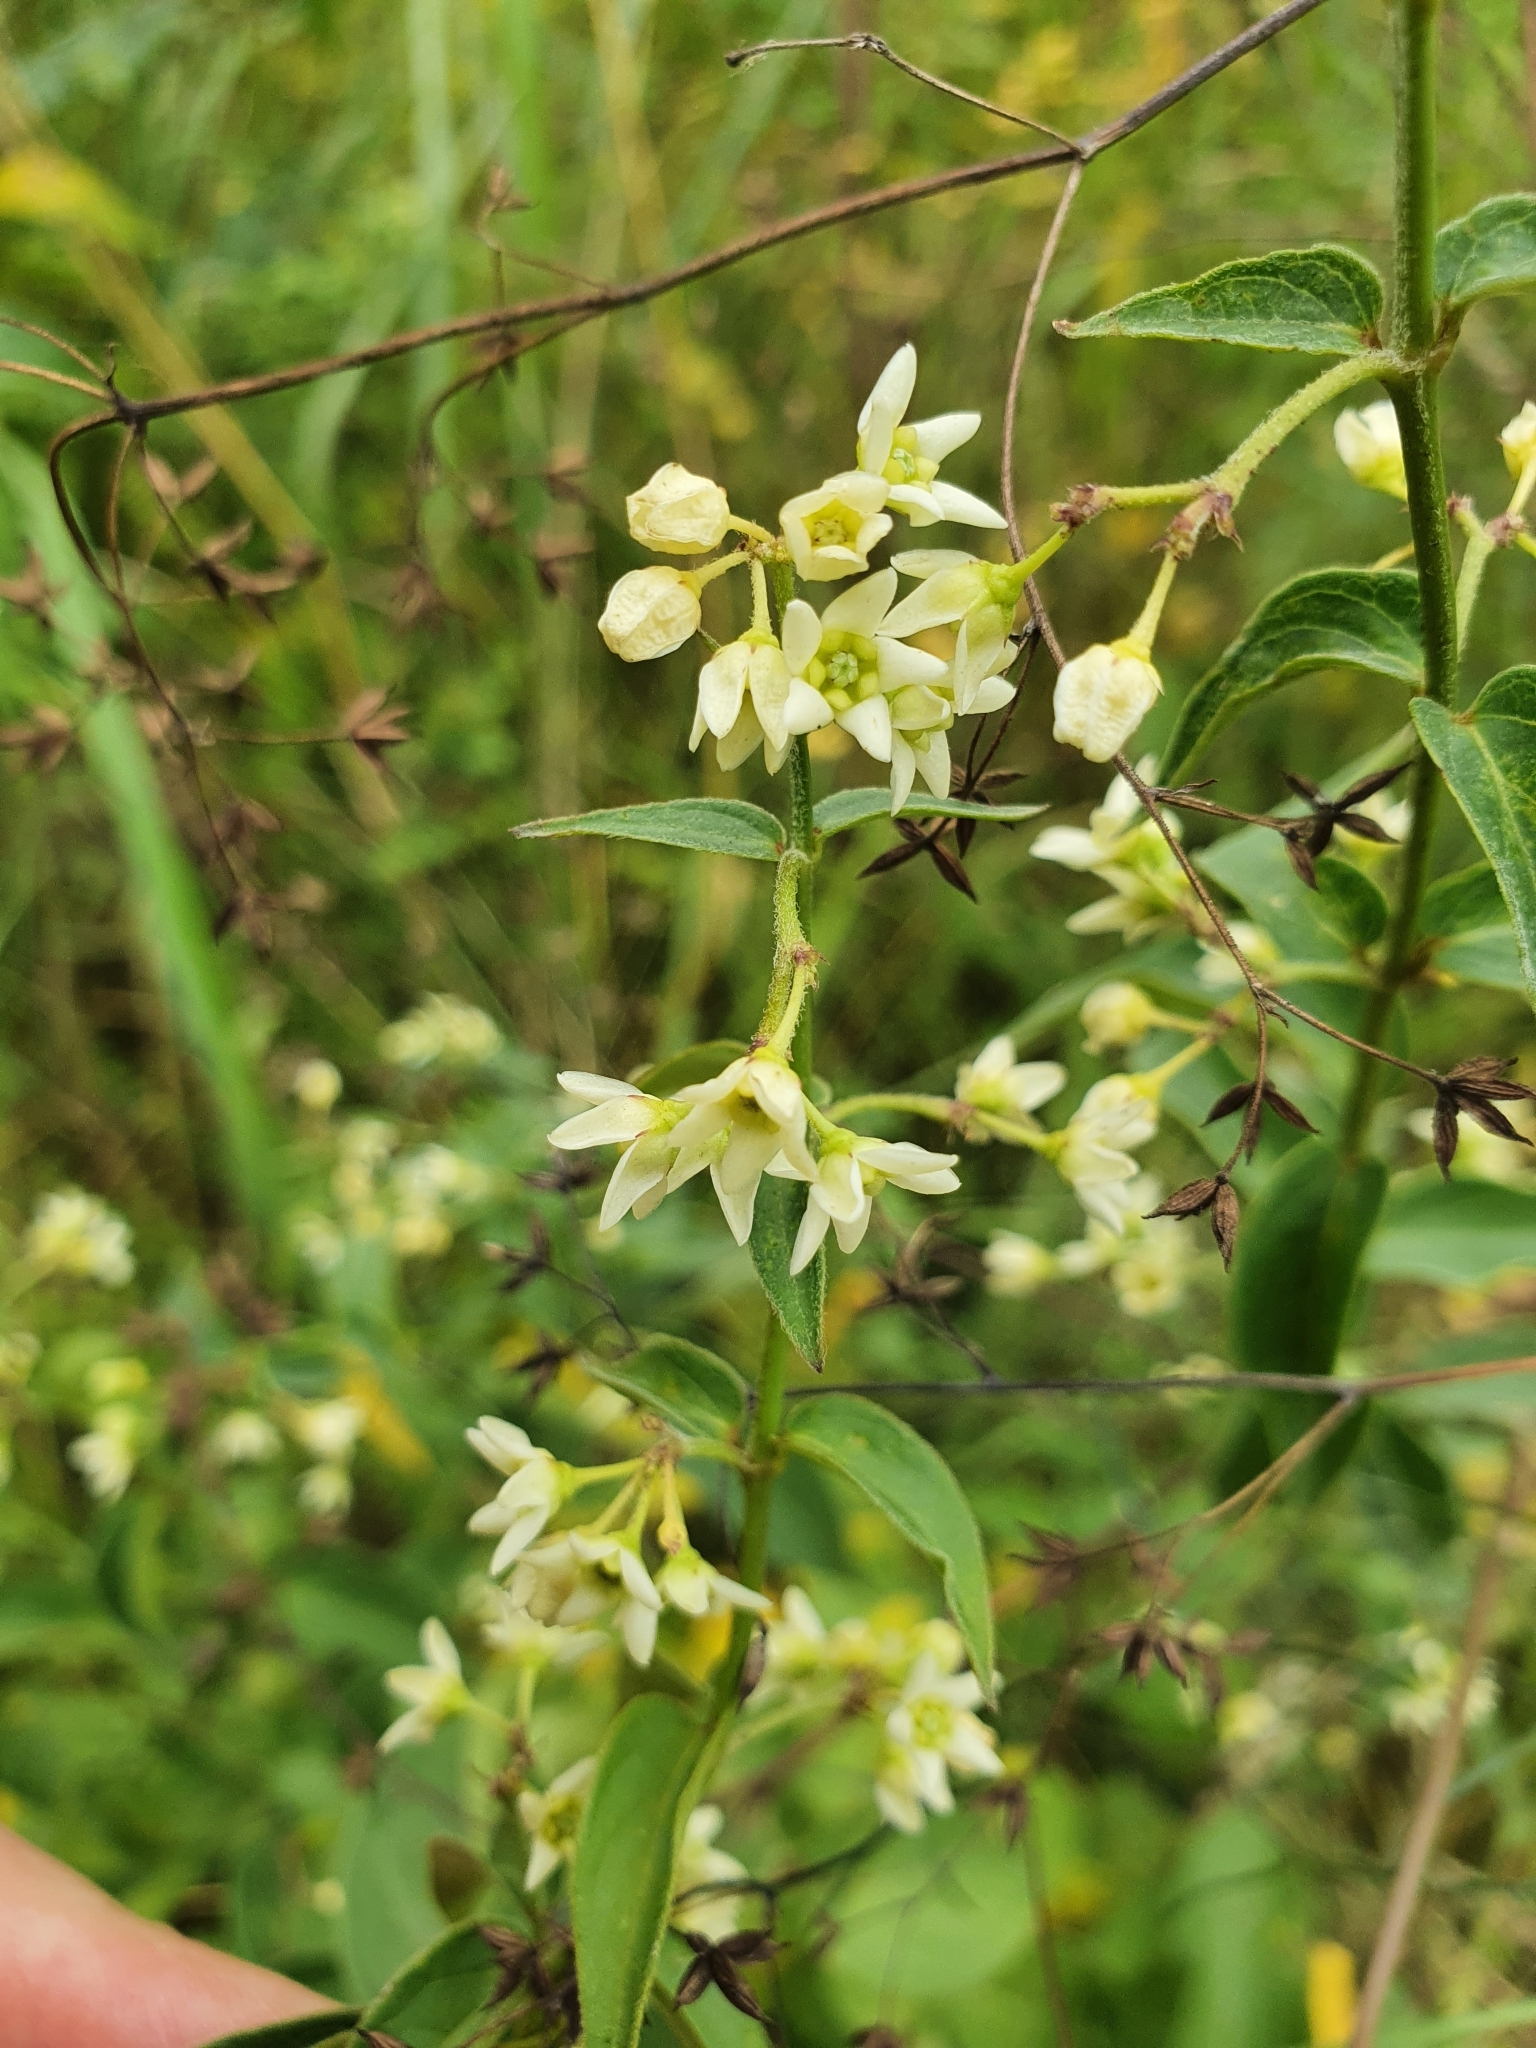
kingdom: Plantae
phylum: Tracheophyta
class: Magnoliopsida
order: Gentianales
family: Apocynaceae
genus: Vincetoxicum
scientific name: Vincetoxicum hirundinaria
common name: White swallowwort
